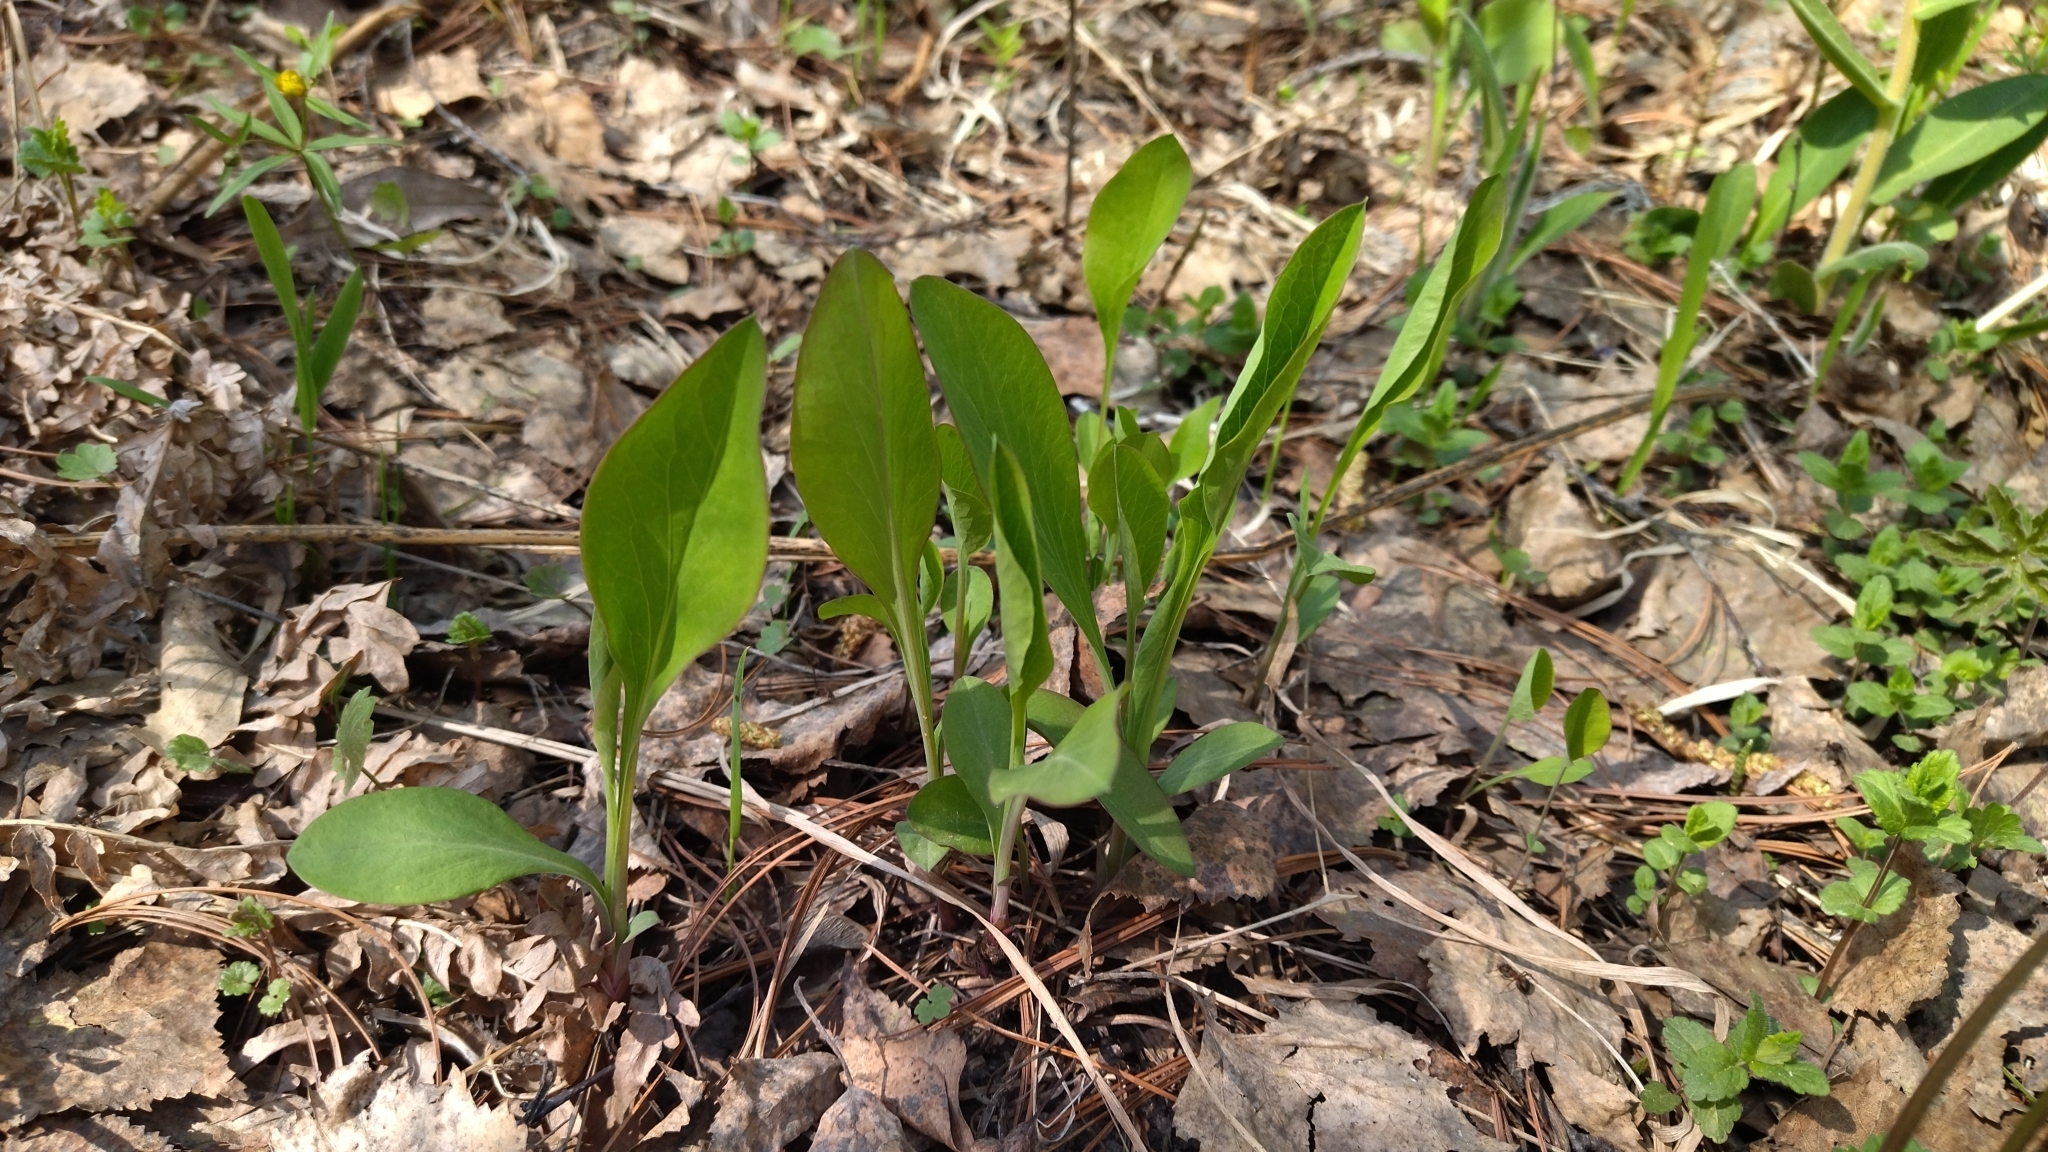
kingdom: Plantae
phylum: Tracheophyta
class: Magnoliopsida
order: Apiales
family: Apiaceae
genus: Bupleurum
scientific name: Bupleurum aureum
